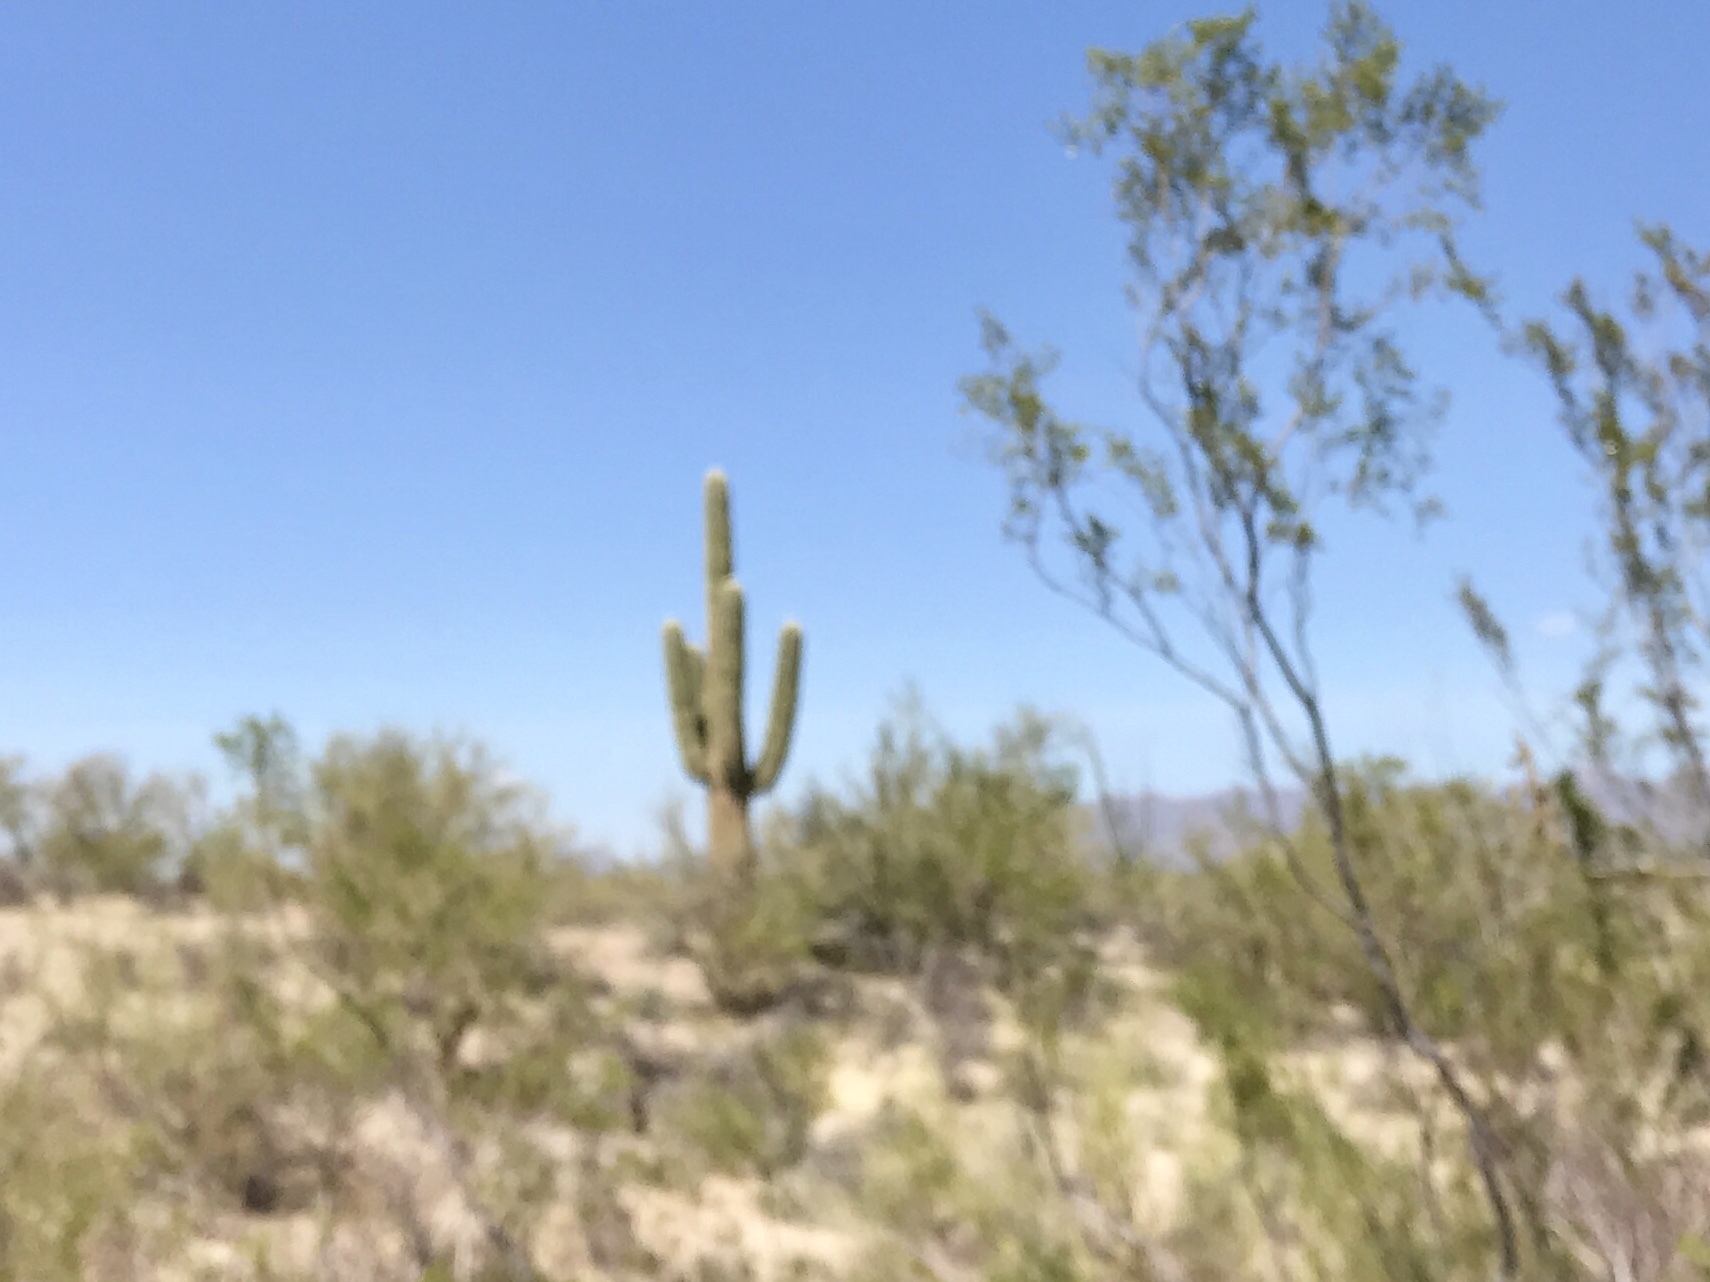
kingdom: Plantae
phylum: Tracheophyta
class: Magnoliopsida
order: Caryophyllales
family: Cactaceae
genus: Carnegiea
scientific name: Carnegiea gigantea
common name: Saguaro
